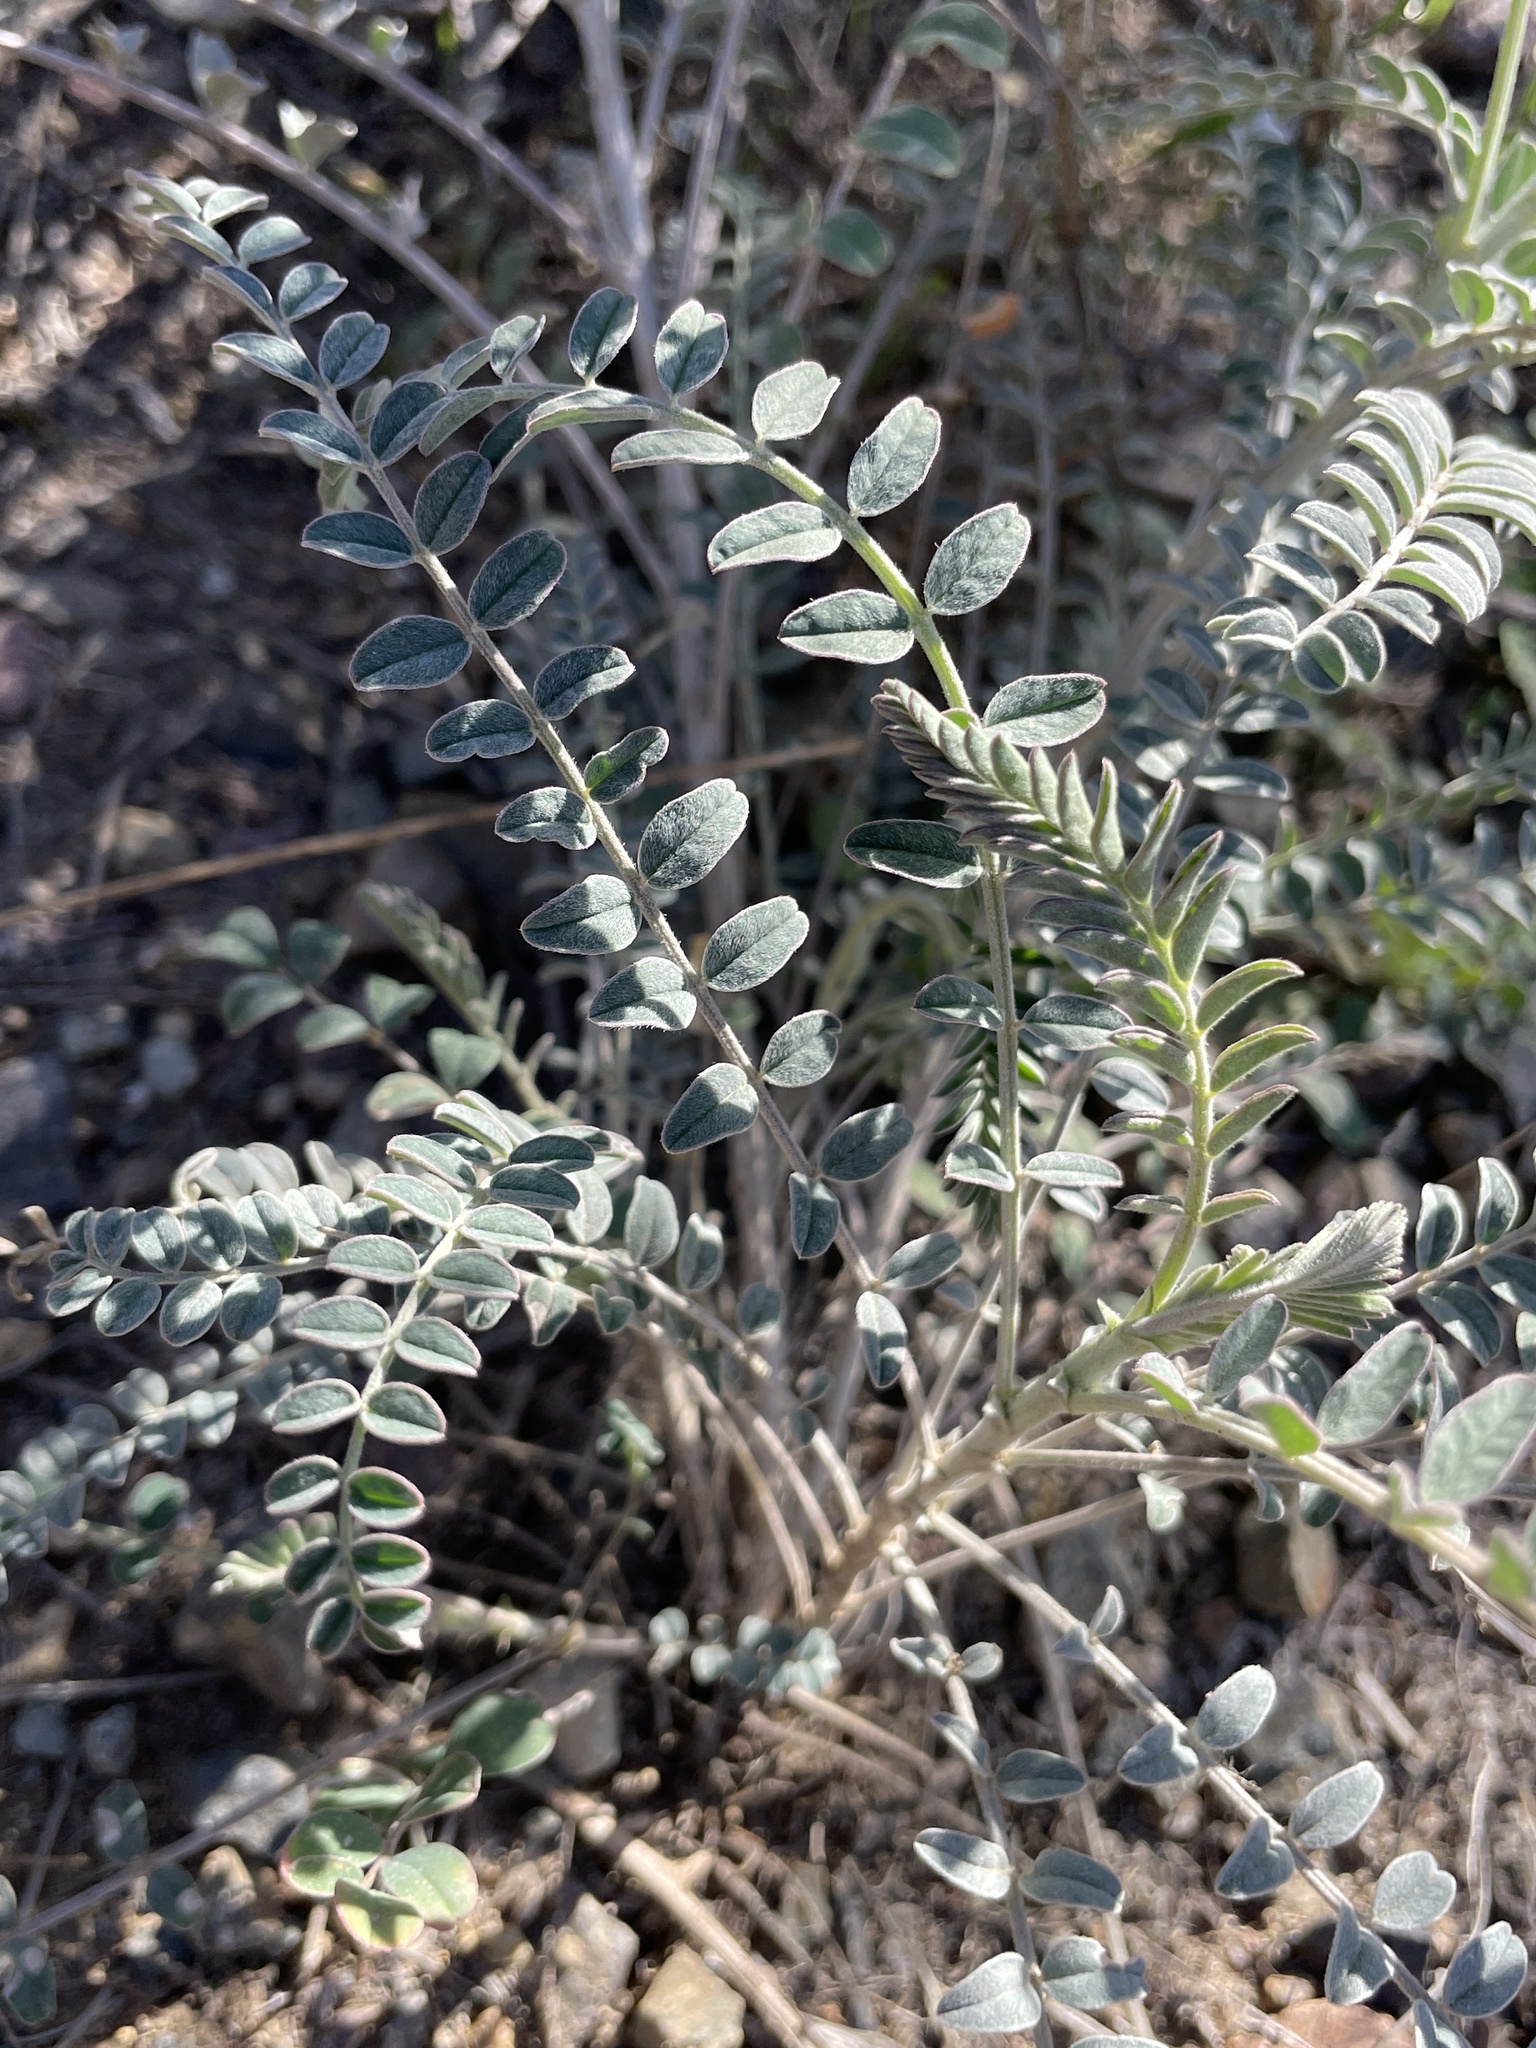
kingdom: Plantae
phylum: Tracheophyta
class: Magnoliopsida
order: Fabales
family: Fabaceae
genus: Astragalus
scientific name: Astragalus trichopodus
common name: Santa barbara milk-vetch
